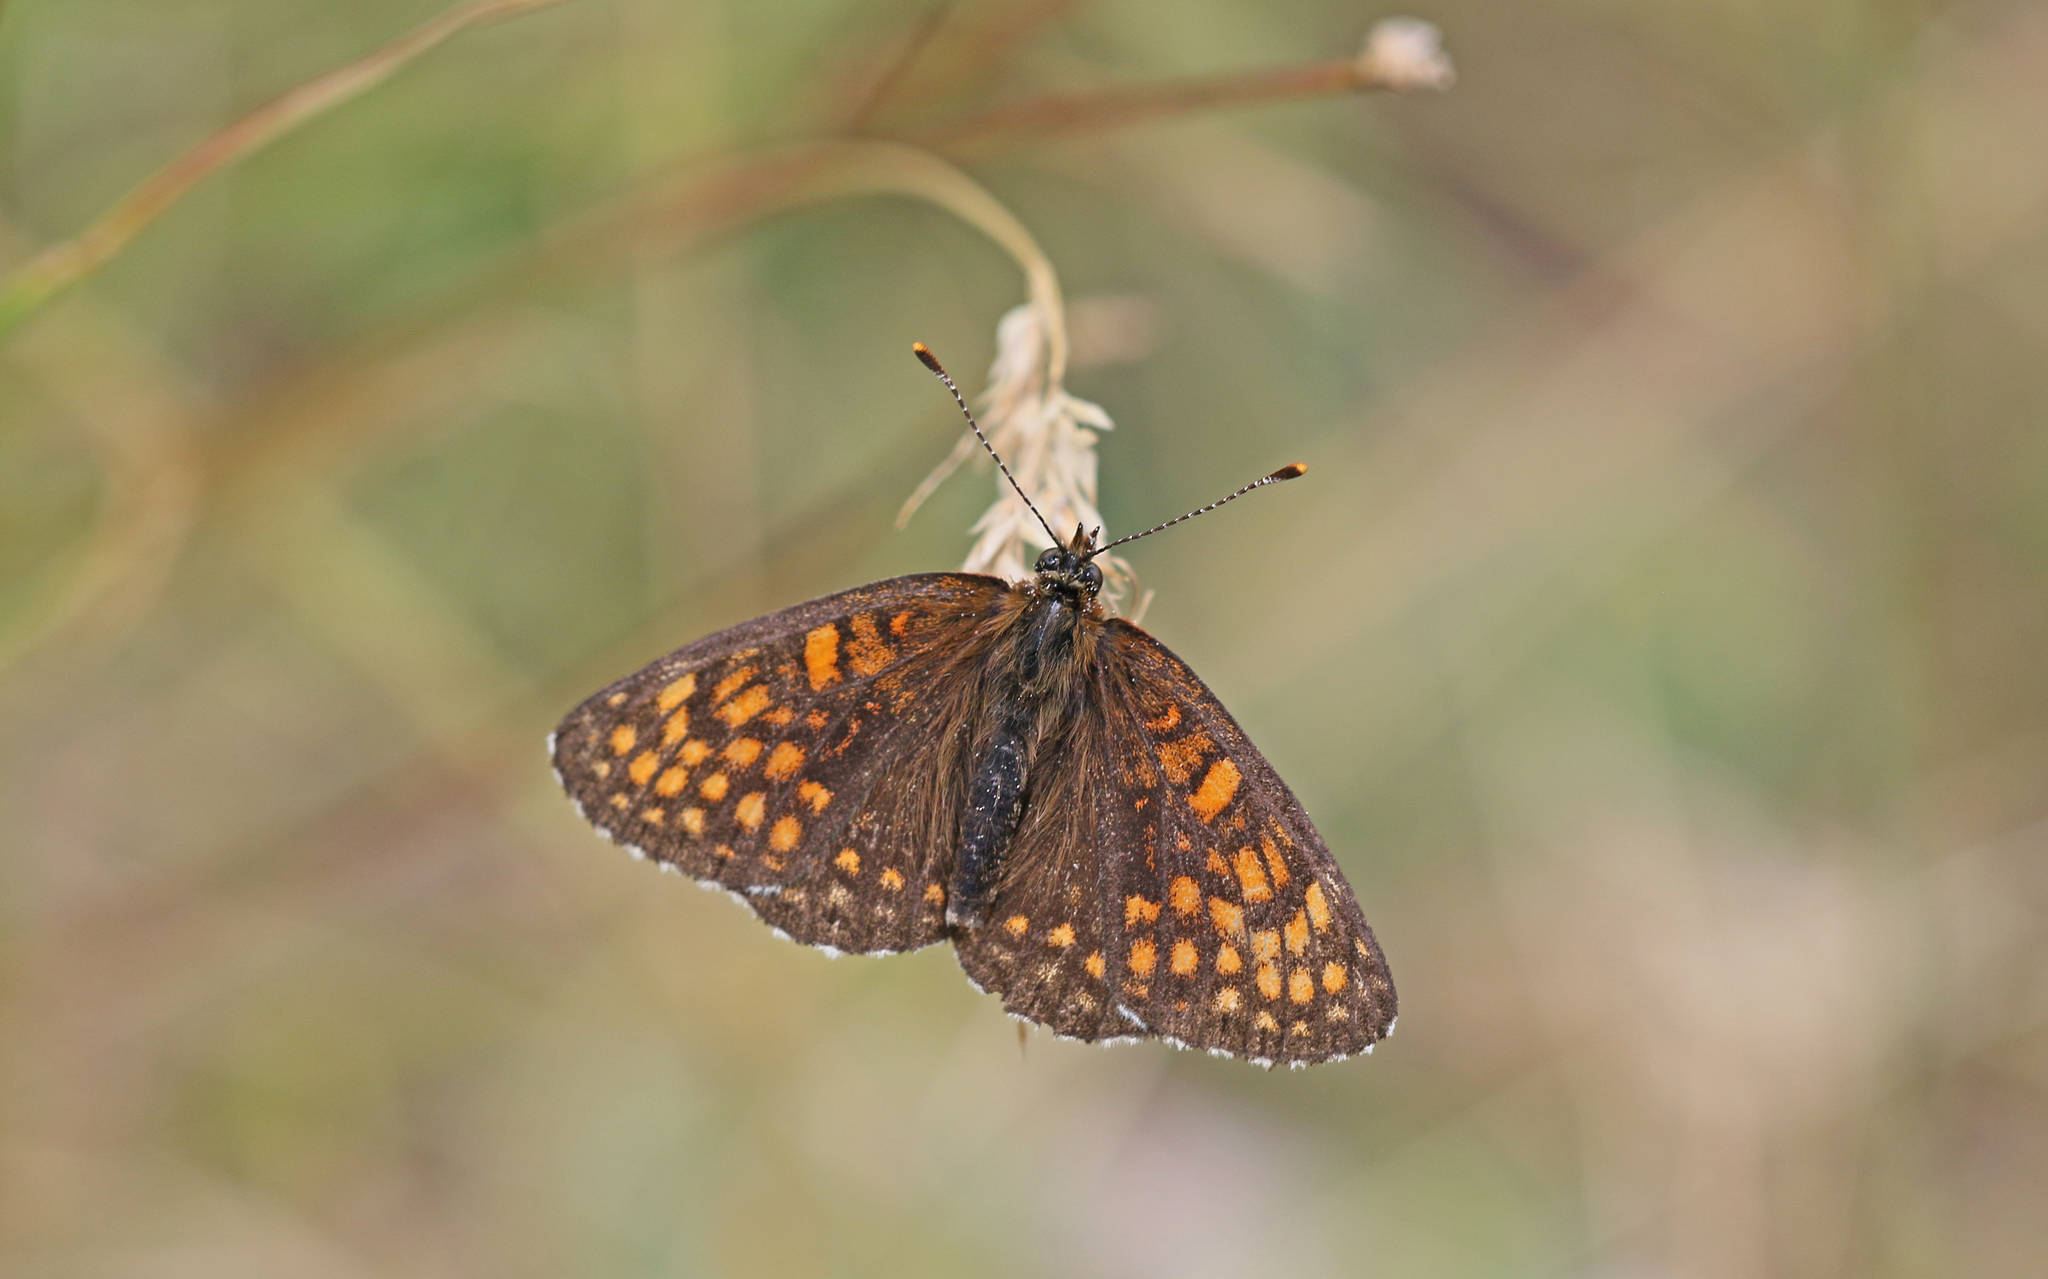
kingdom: Animalia
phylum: Arthropoda
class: Insecta
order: Lepidoptera
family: Nymphalidae
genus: Melitaea
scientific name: Melitaea diamina
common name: False heath fritillary
